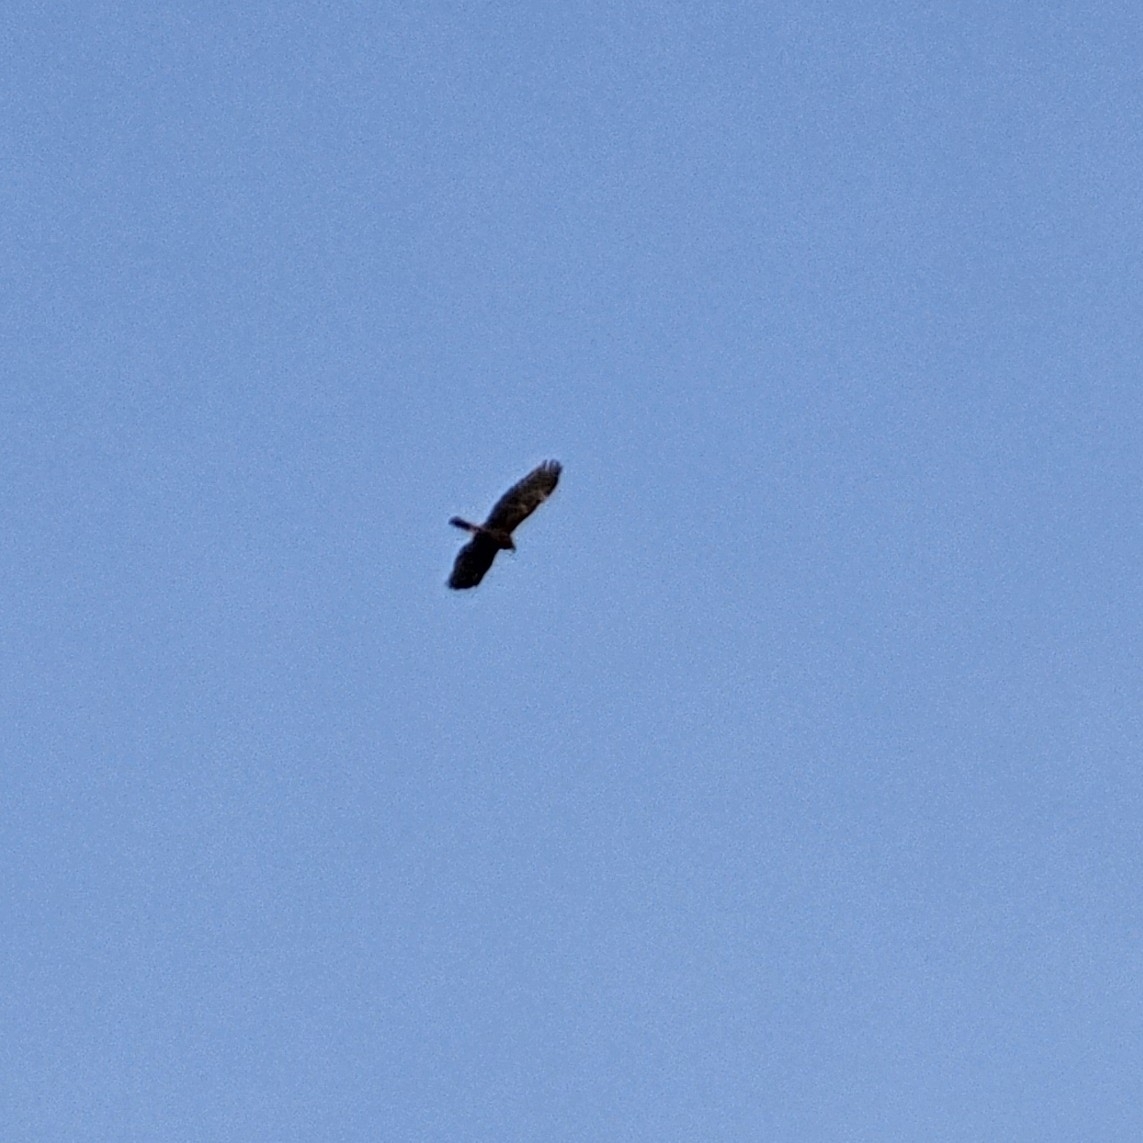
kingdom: Animalia
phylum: Chordata
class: Aves
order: Accipitriformes
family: Accipitridae
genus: Circus
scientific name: Circus aeruginosus
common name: Western marsh harrier
